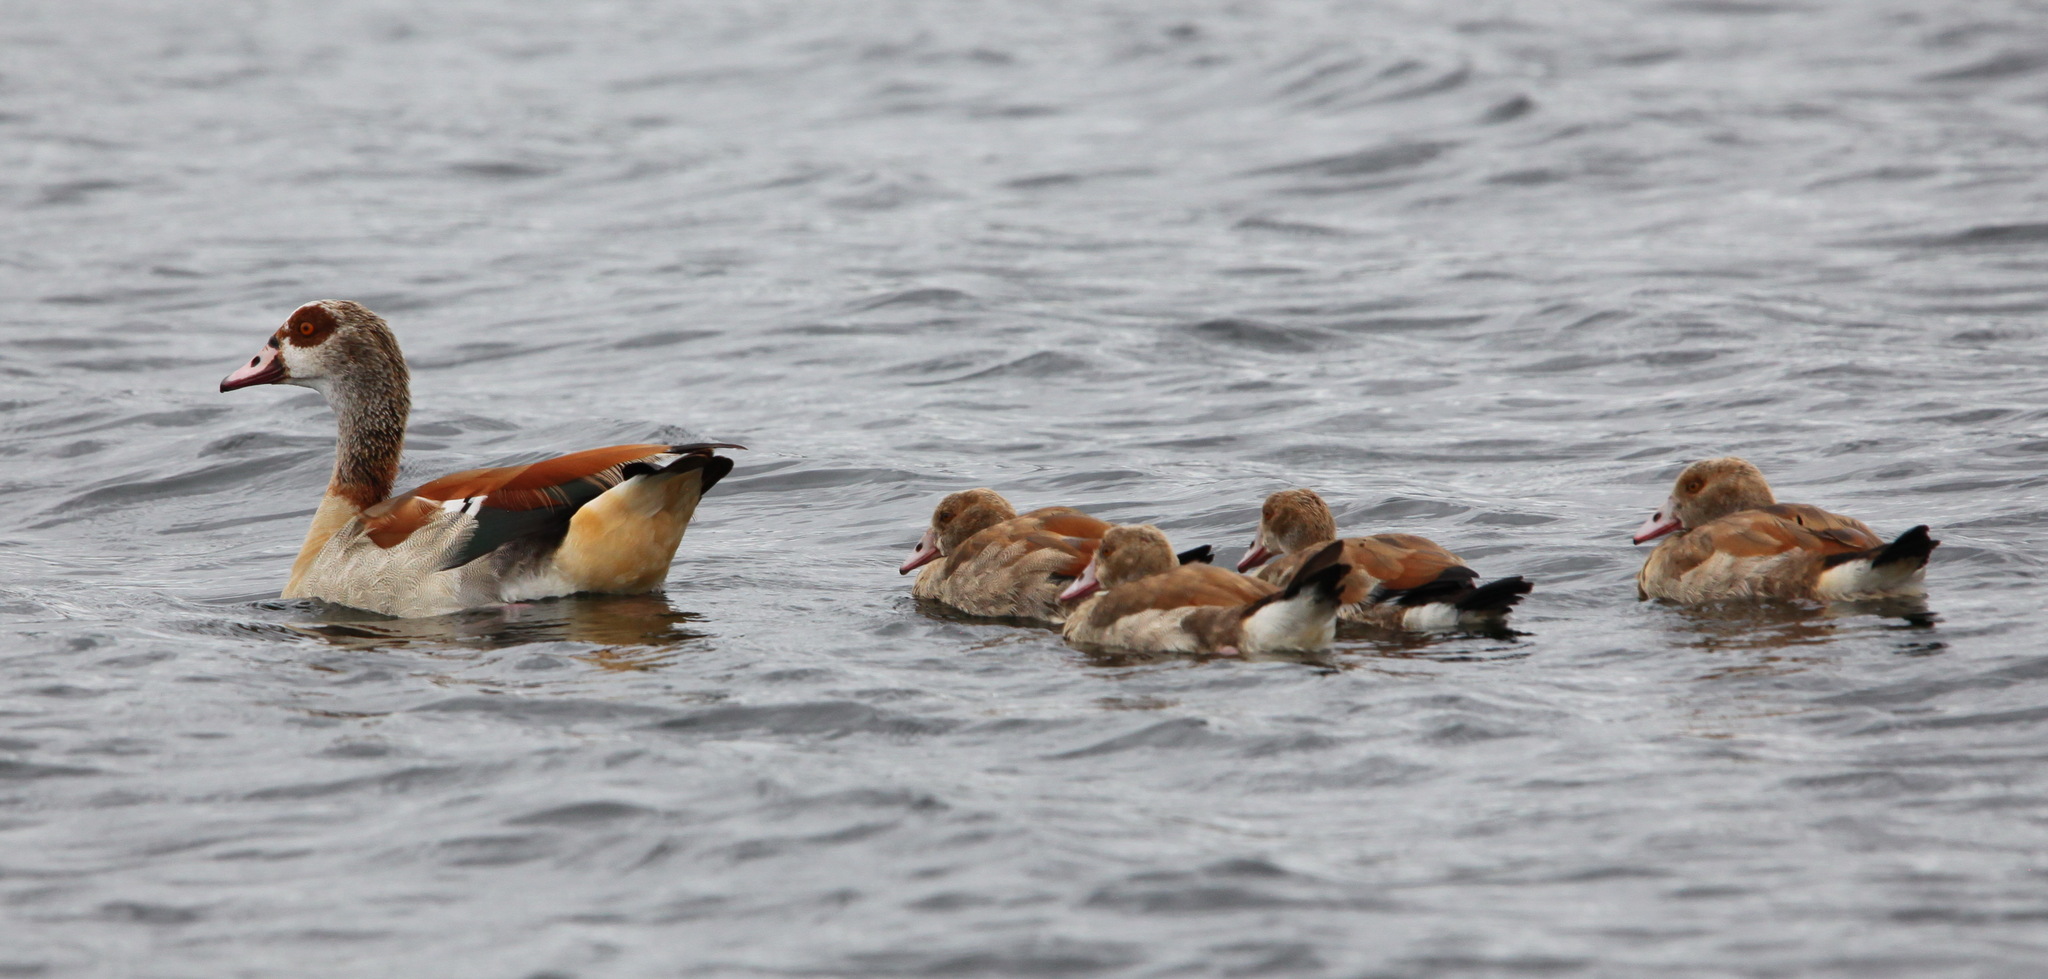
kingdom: Animalia
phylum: Chordata
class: Aves
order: Anseriformes
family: Anatidae
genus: Alopochen
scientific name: Alopochen aegyptiaca
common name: Egyptian goose
